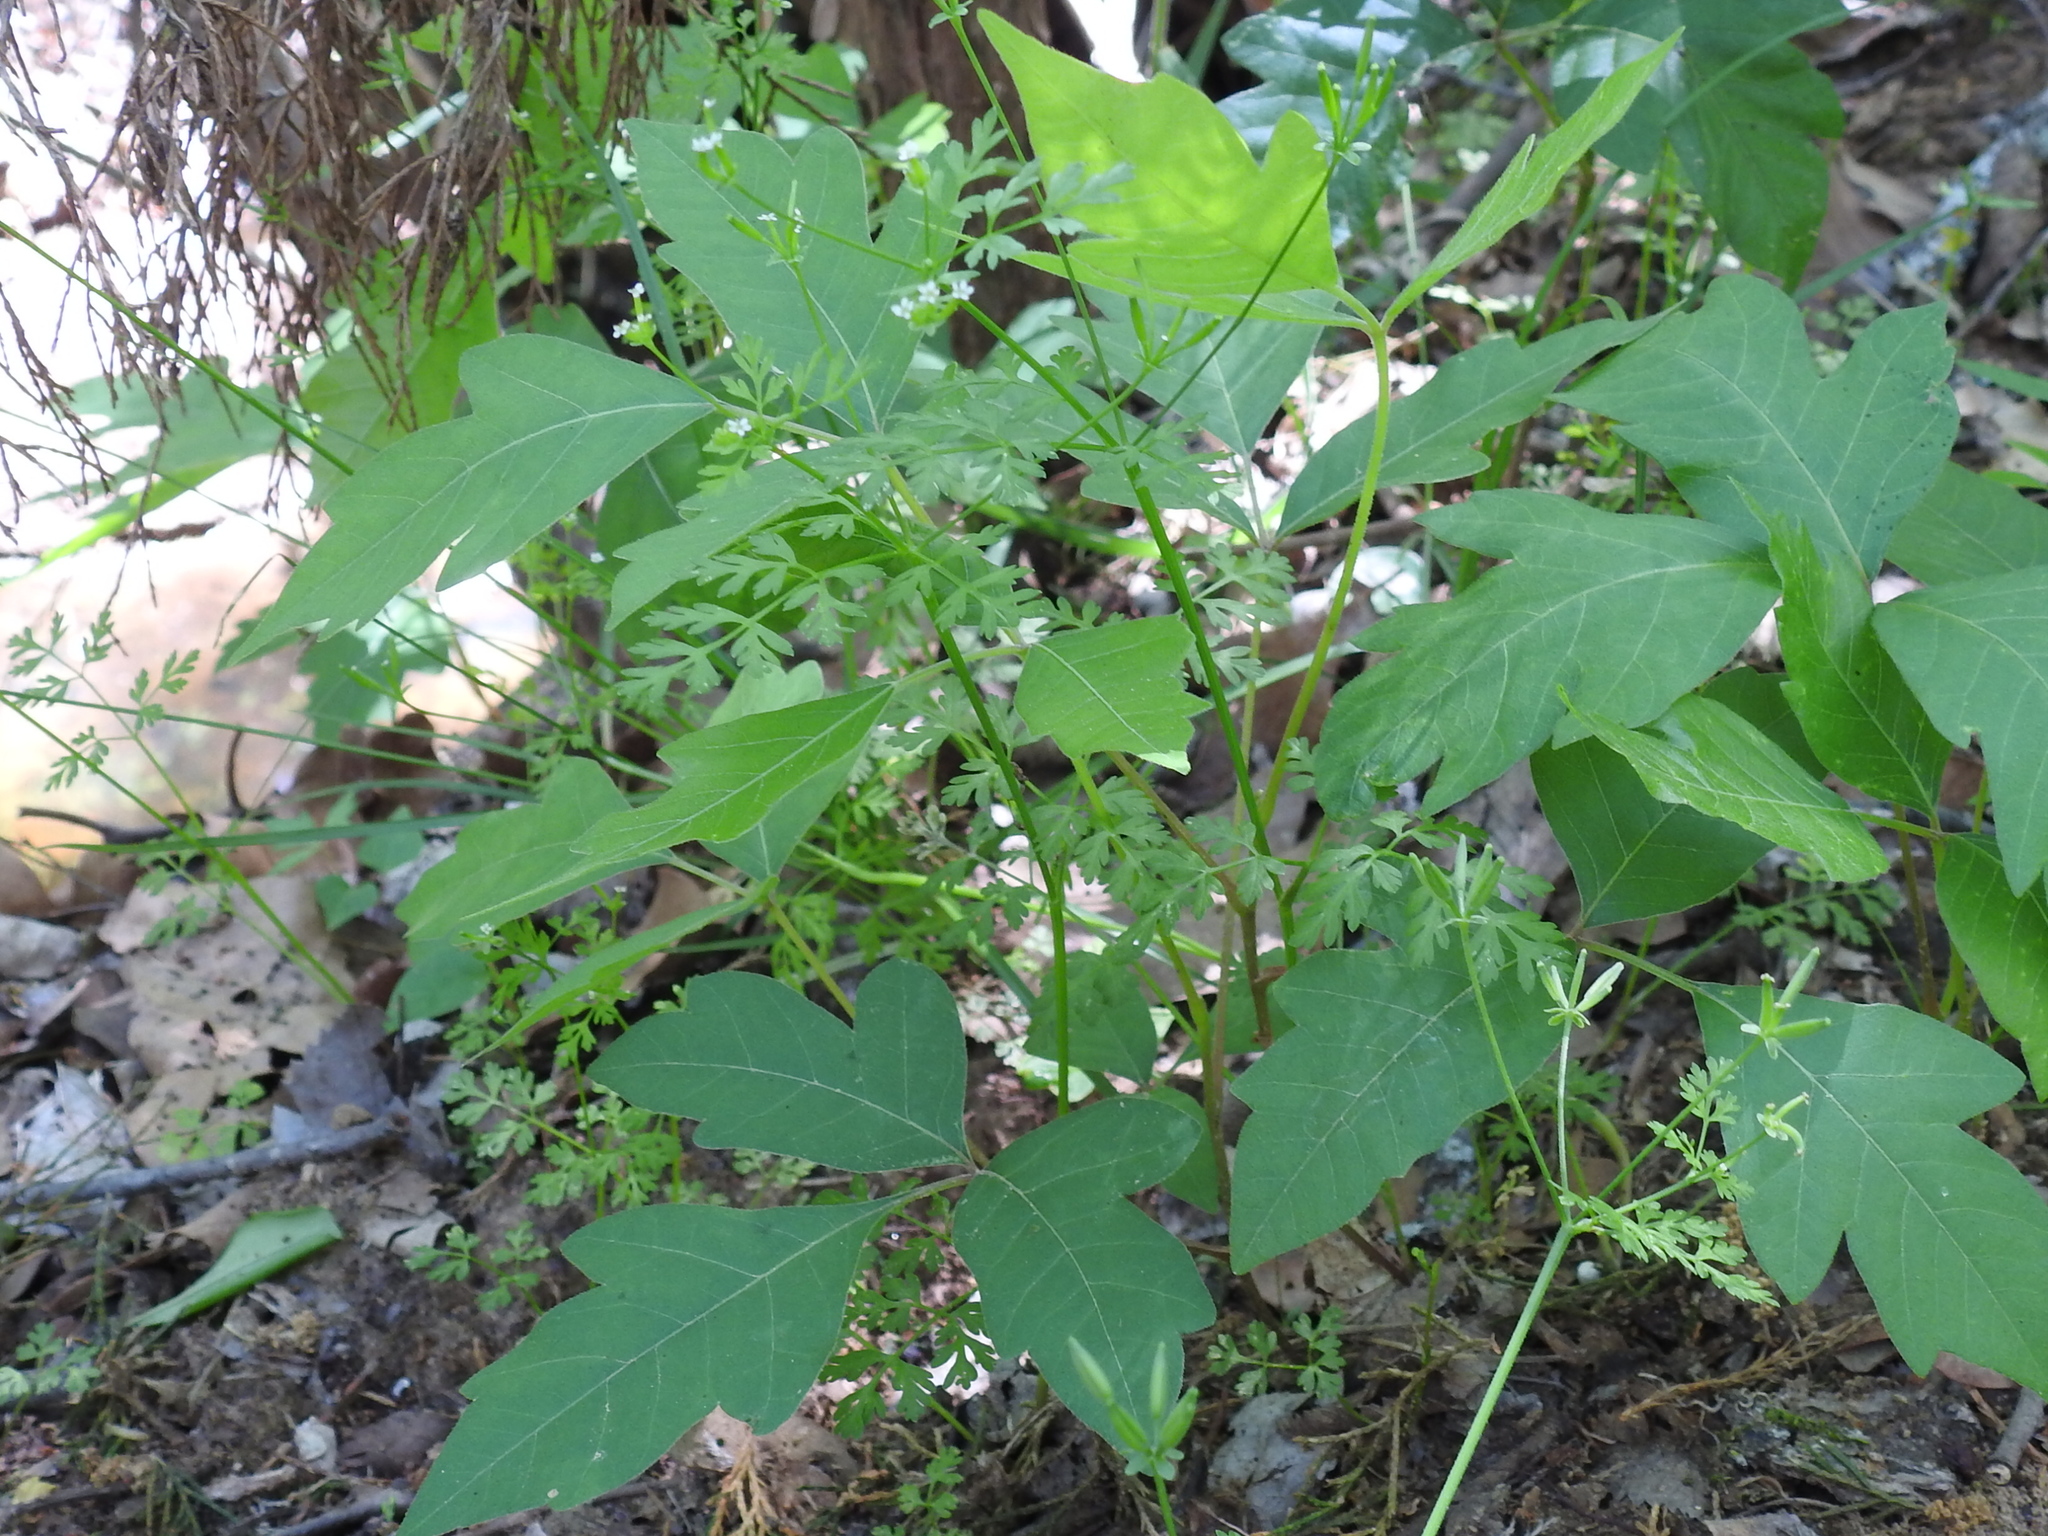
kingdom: Plantae
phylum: Tracheophyta
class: Magnoliopsida
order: Apiales
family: Apiaceae
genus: Chaerophyllum
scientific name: Chaerophyllum tainturieri
